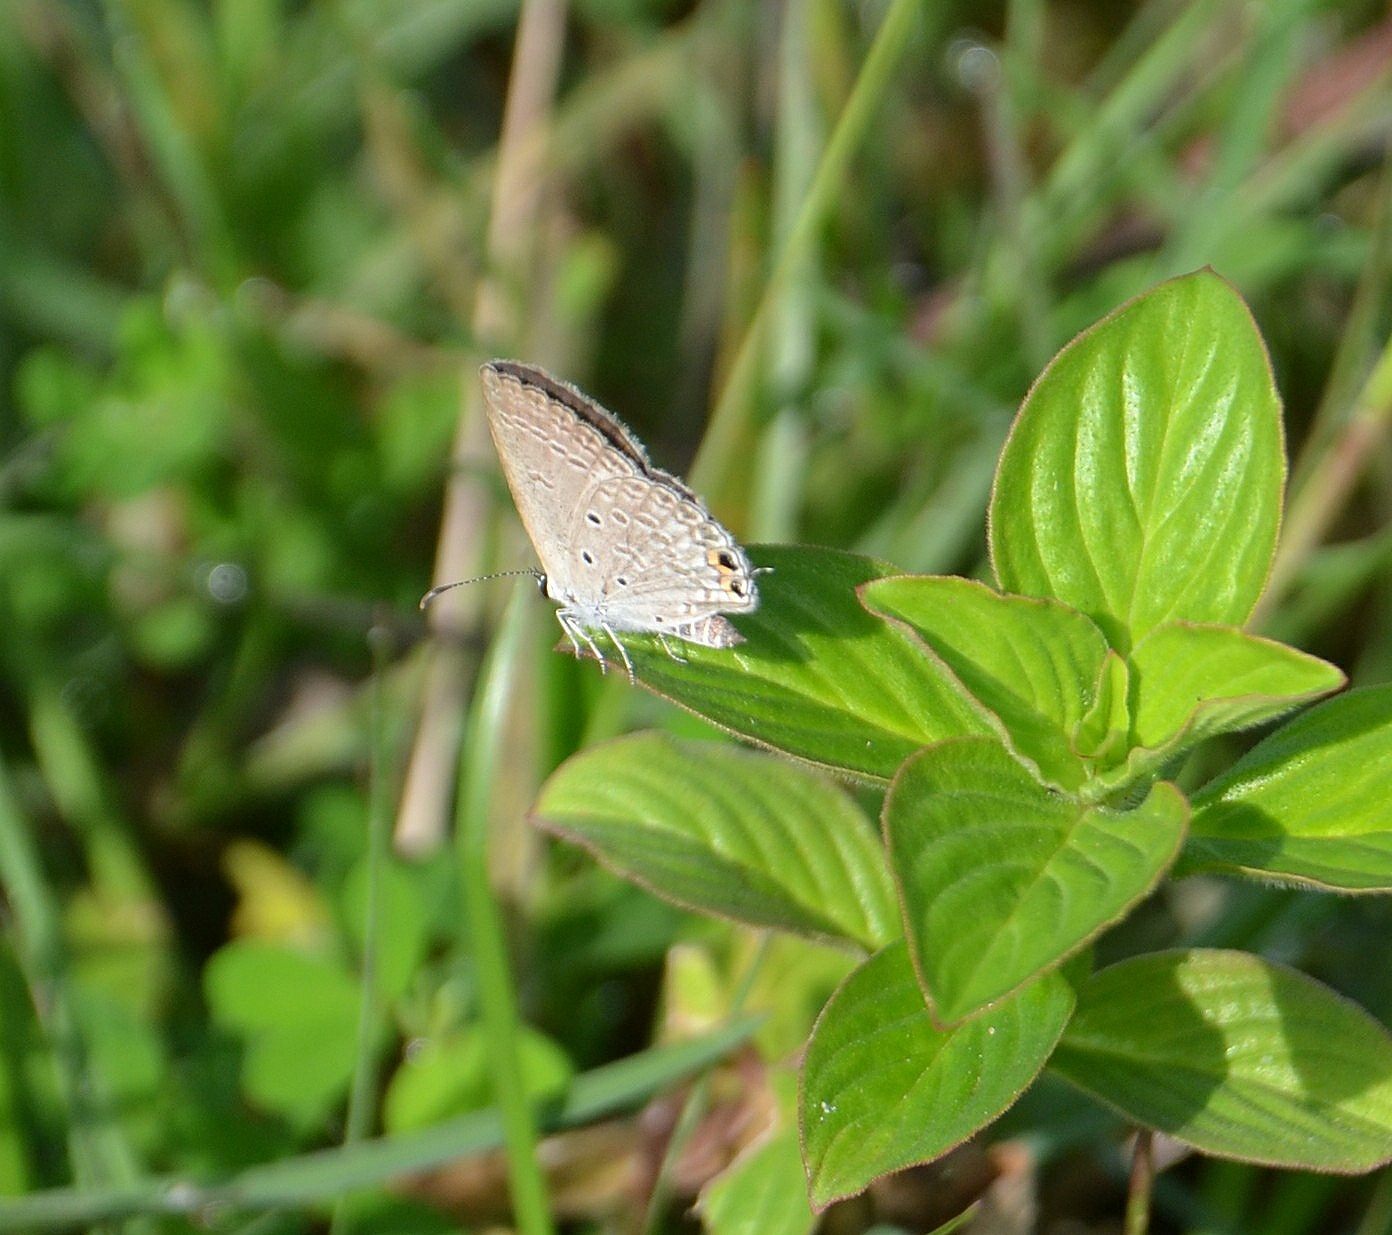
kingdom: Animalia
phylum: Arthropoda
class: Insecta
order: Lepidoptera
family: Lycaenidae
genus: Euchrysops
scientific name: Euchrysops cnejus
